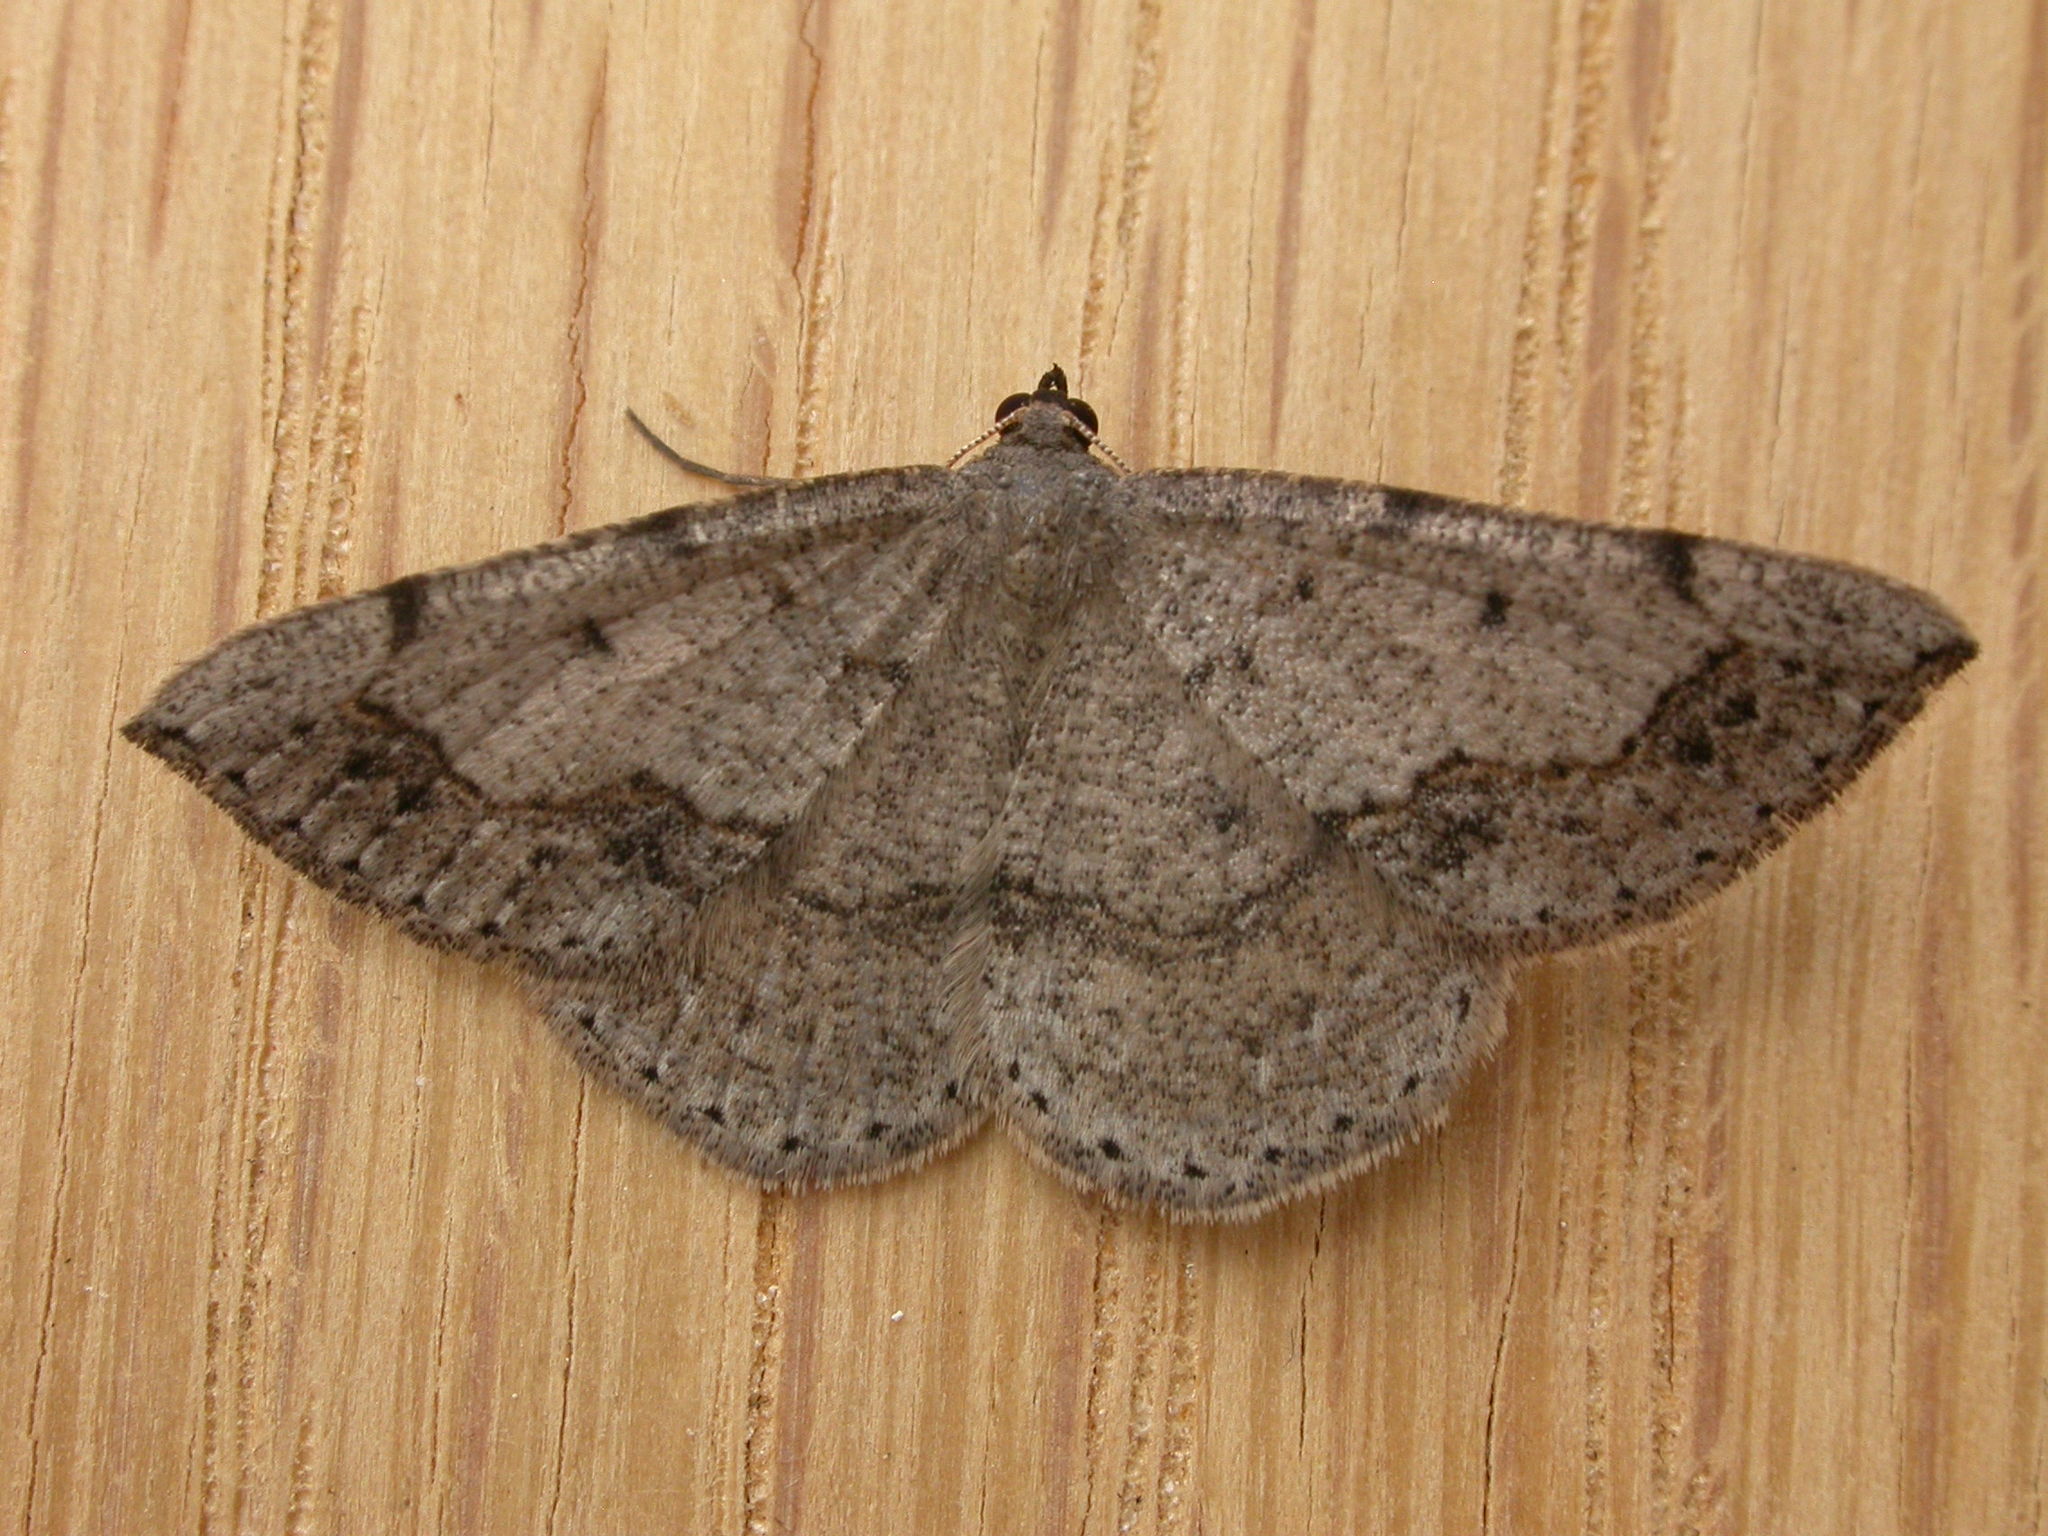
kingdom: Animalia
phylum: Arthropoda
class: Insecta
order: Lepidoptera
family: Geometridae
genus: Taxeotis
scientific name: Taxeotis intextata
